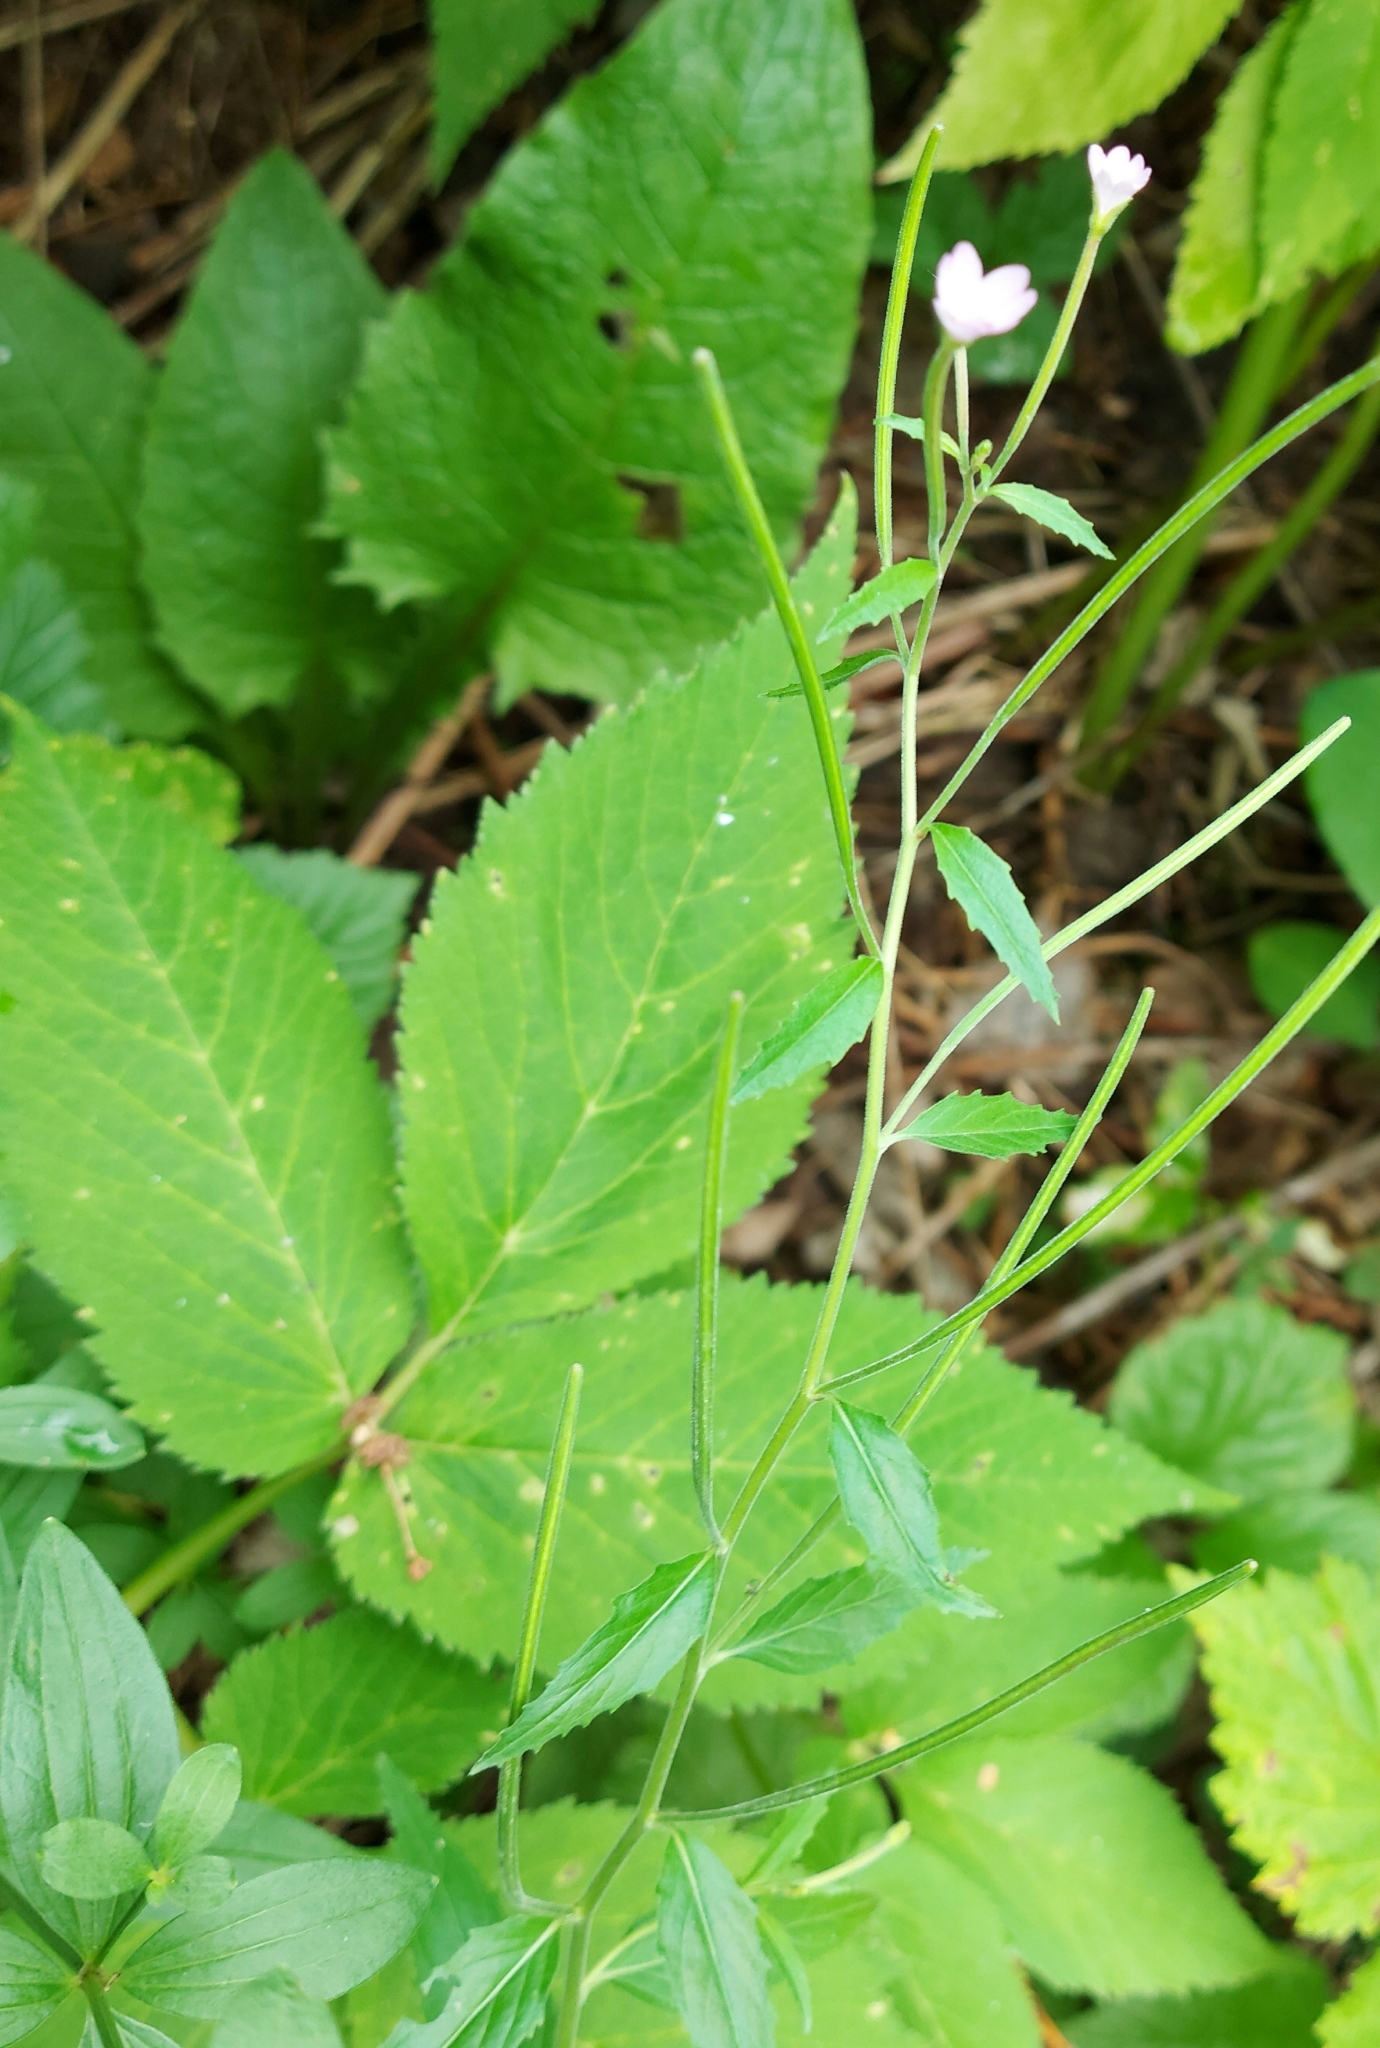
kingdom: Plantae
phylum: Tracheophyta
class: Magnoliopsida
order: Myrtales
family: Onagraceae
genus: Epilobium
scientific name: Epilobium montanum
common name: Broad-leaved willowherb
